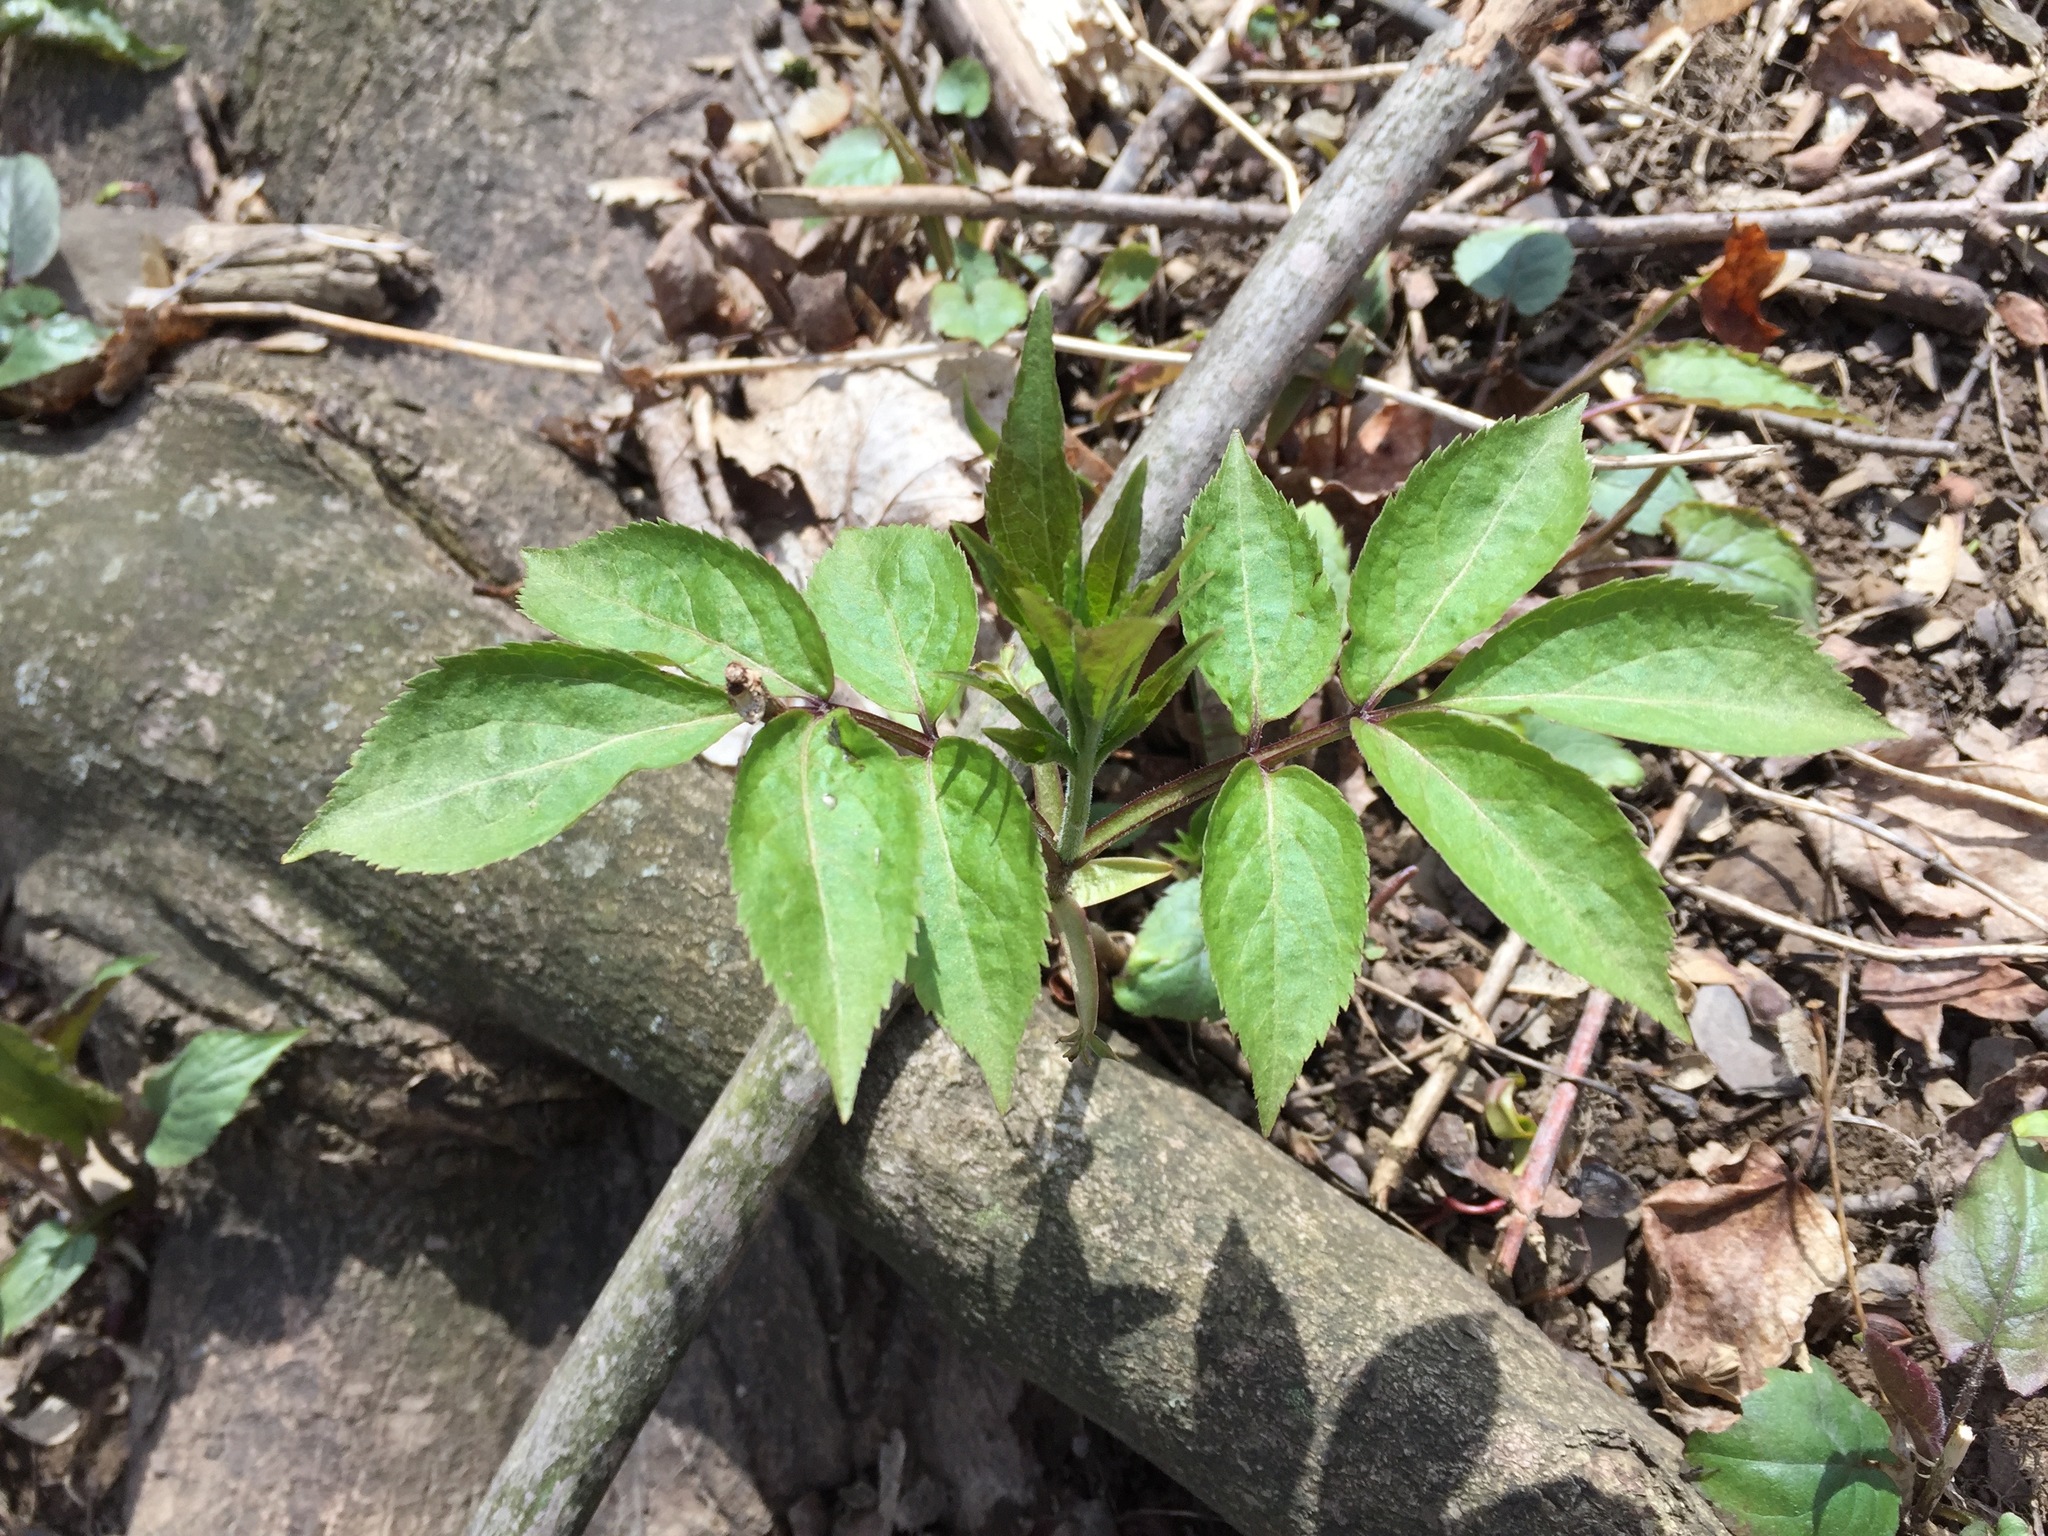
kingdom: Plantae
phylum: Tracheophyta
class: Magnoliopsida
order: Dipsacales
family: Viburnaceae
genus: Sambucus
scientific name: Sambucus racemosa
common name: Red-berried elder
